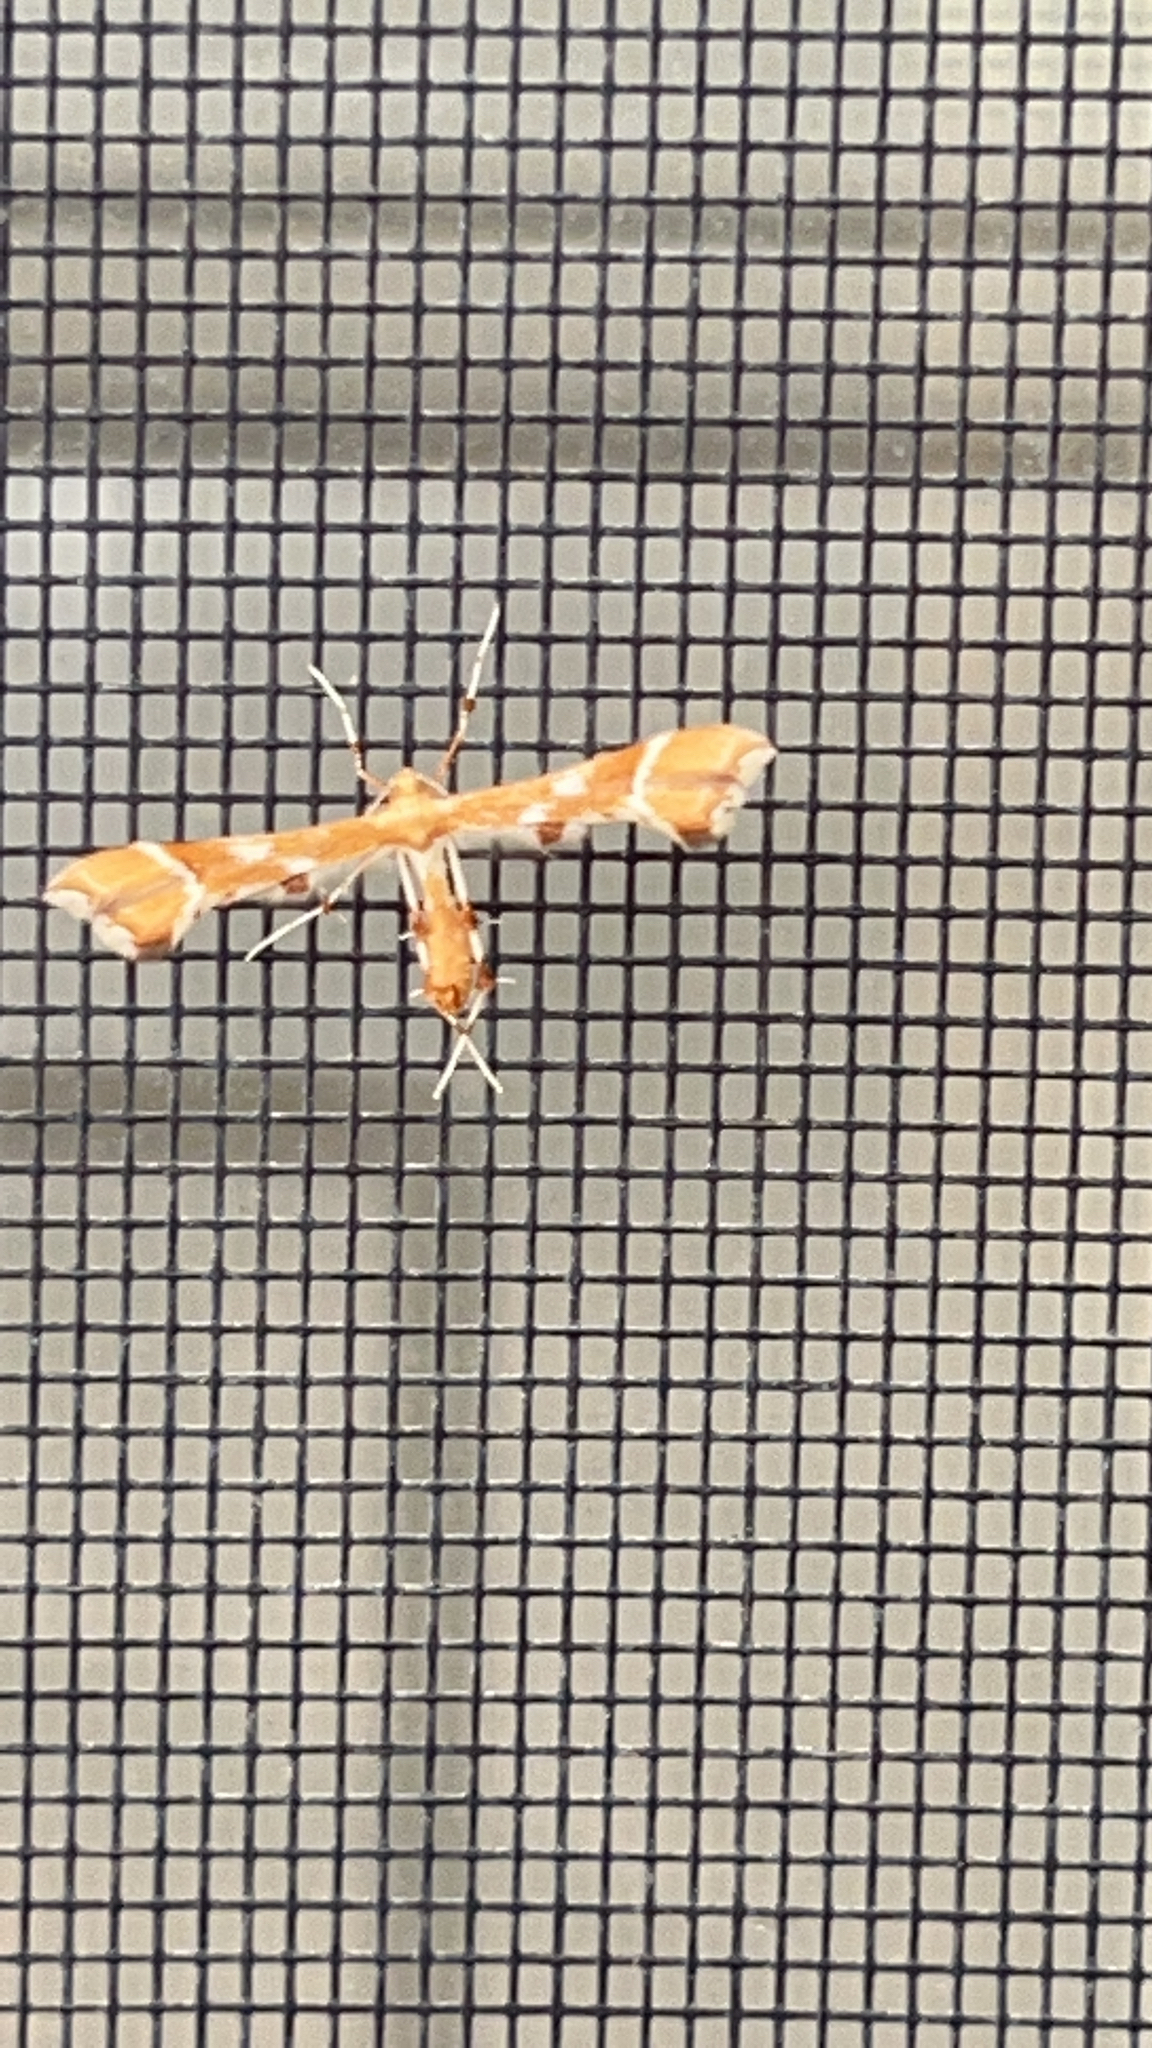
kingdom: Animalia
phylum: Arthropoda
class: Insecta
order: Lepidoptera
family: Pterophoridae
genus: Cnaemidophorus
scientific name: Cnaemidophorus rhododactyla
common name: Rose plume
